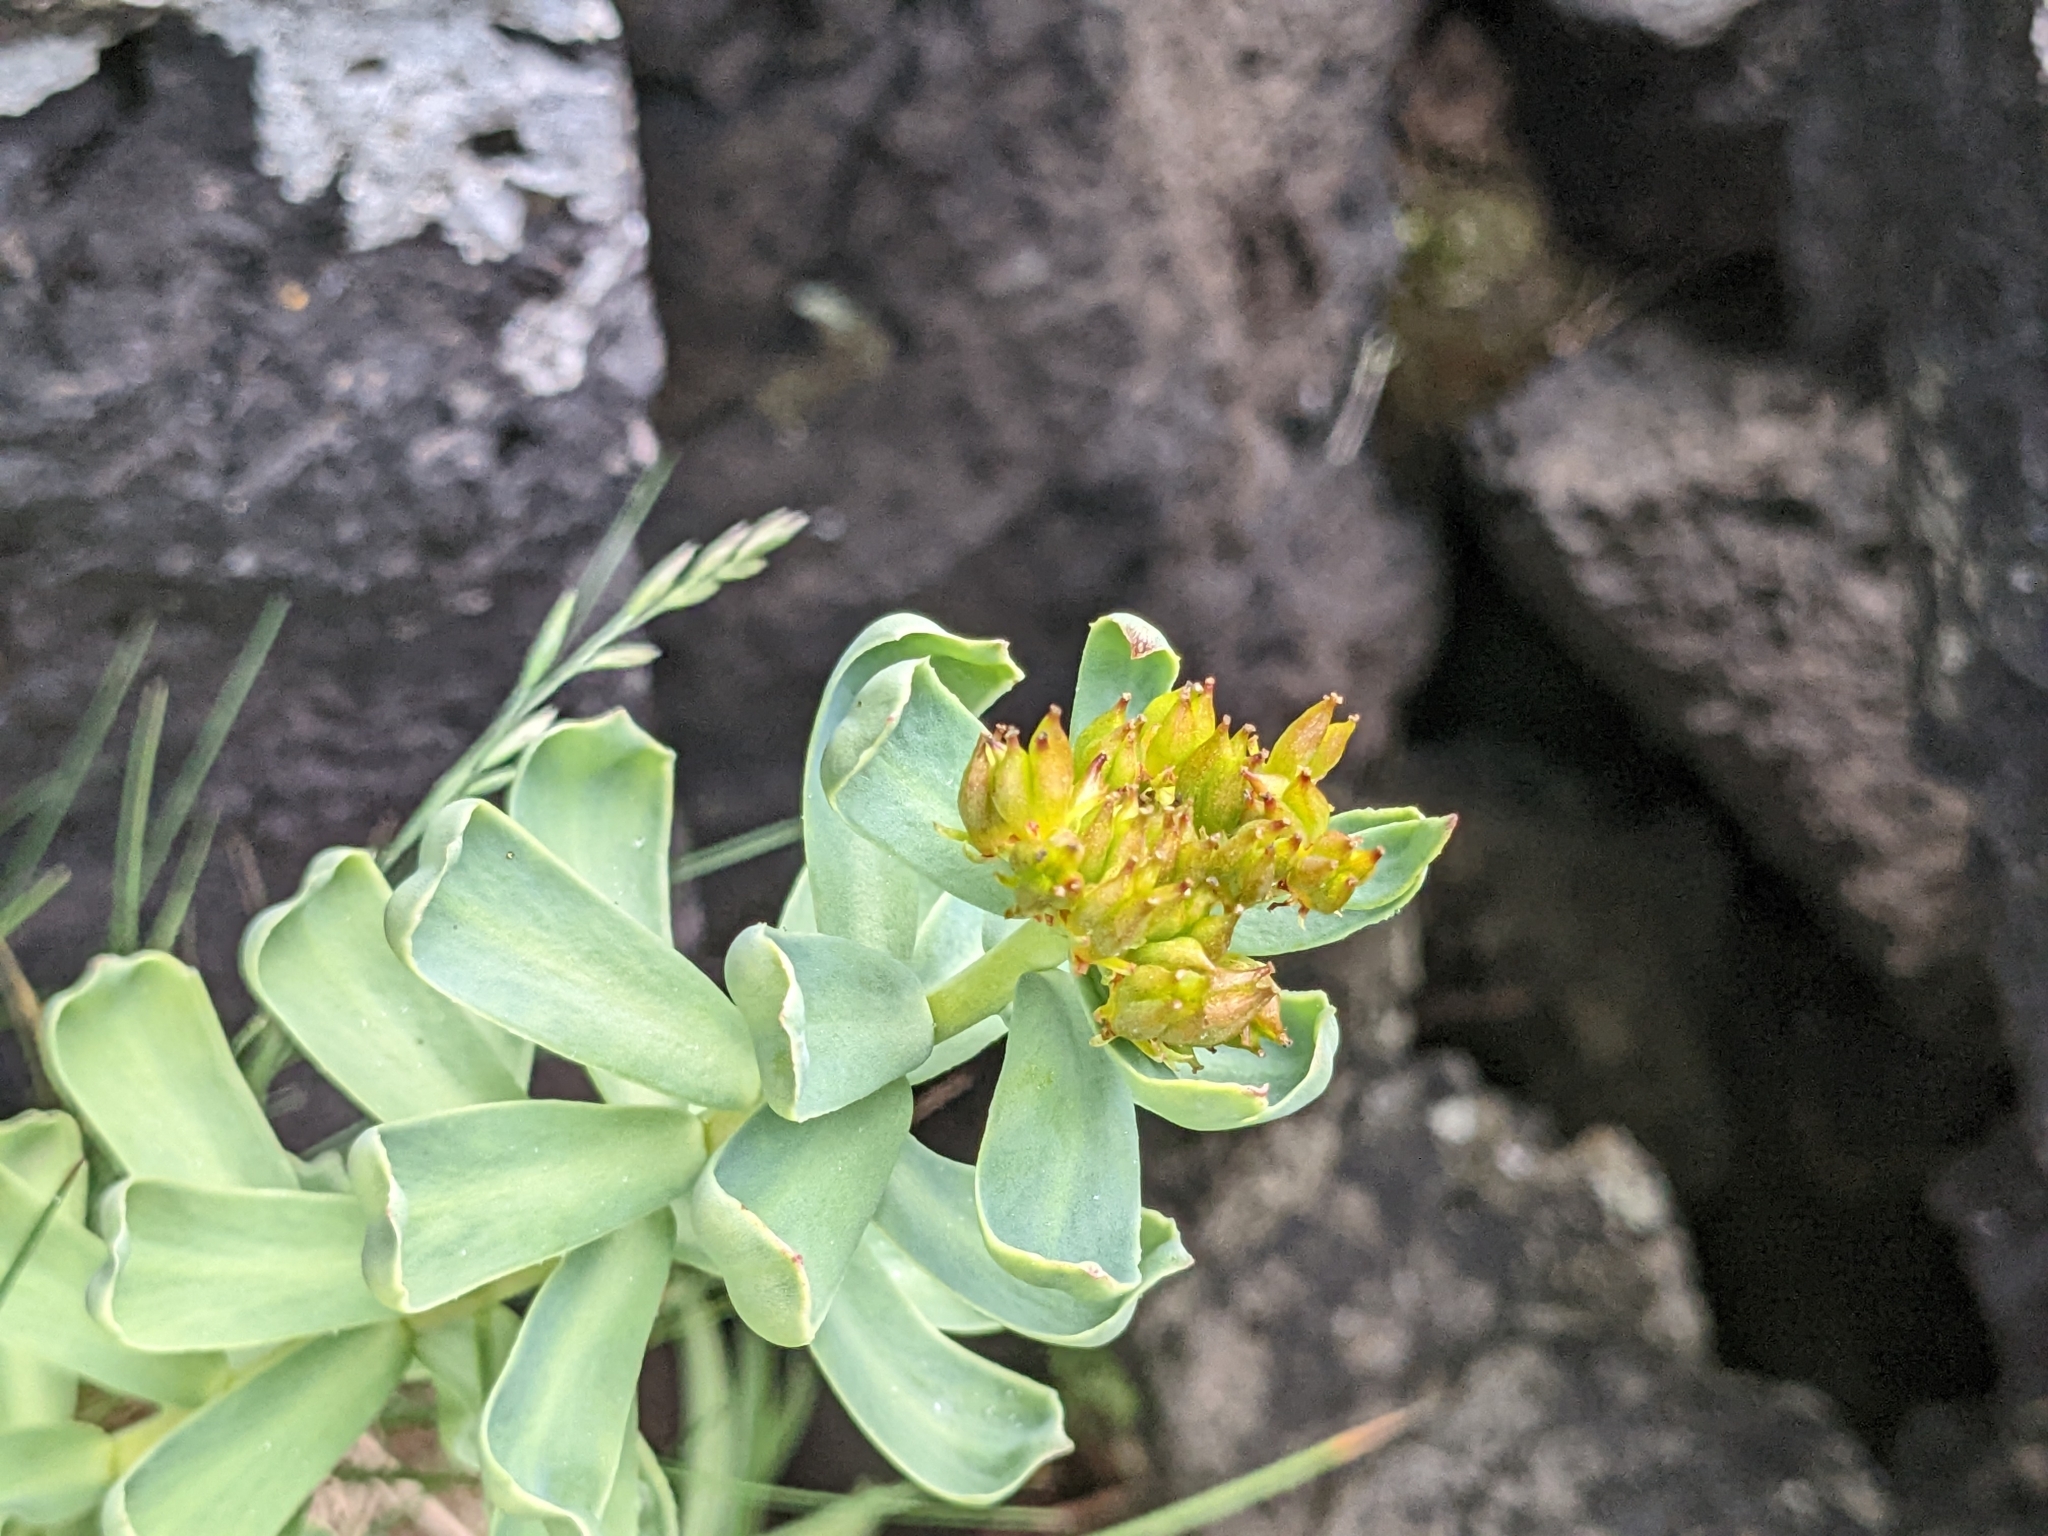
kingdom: Plantae
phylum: Tracheophyta
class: Magnoliopsida
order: Saxifragales
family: Crassulaceae
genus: Rhodiola
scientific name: Rhodiola rosea
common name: Roseroot
